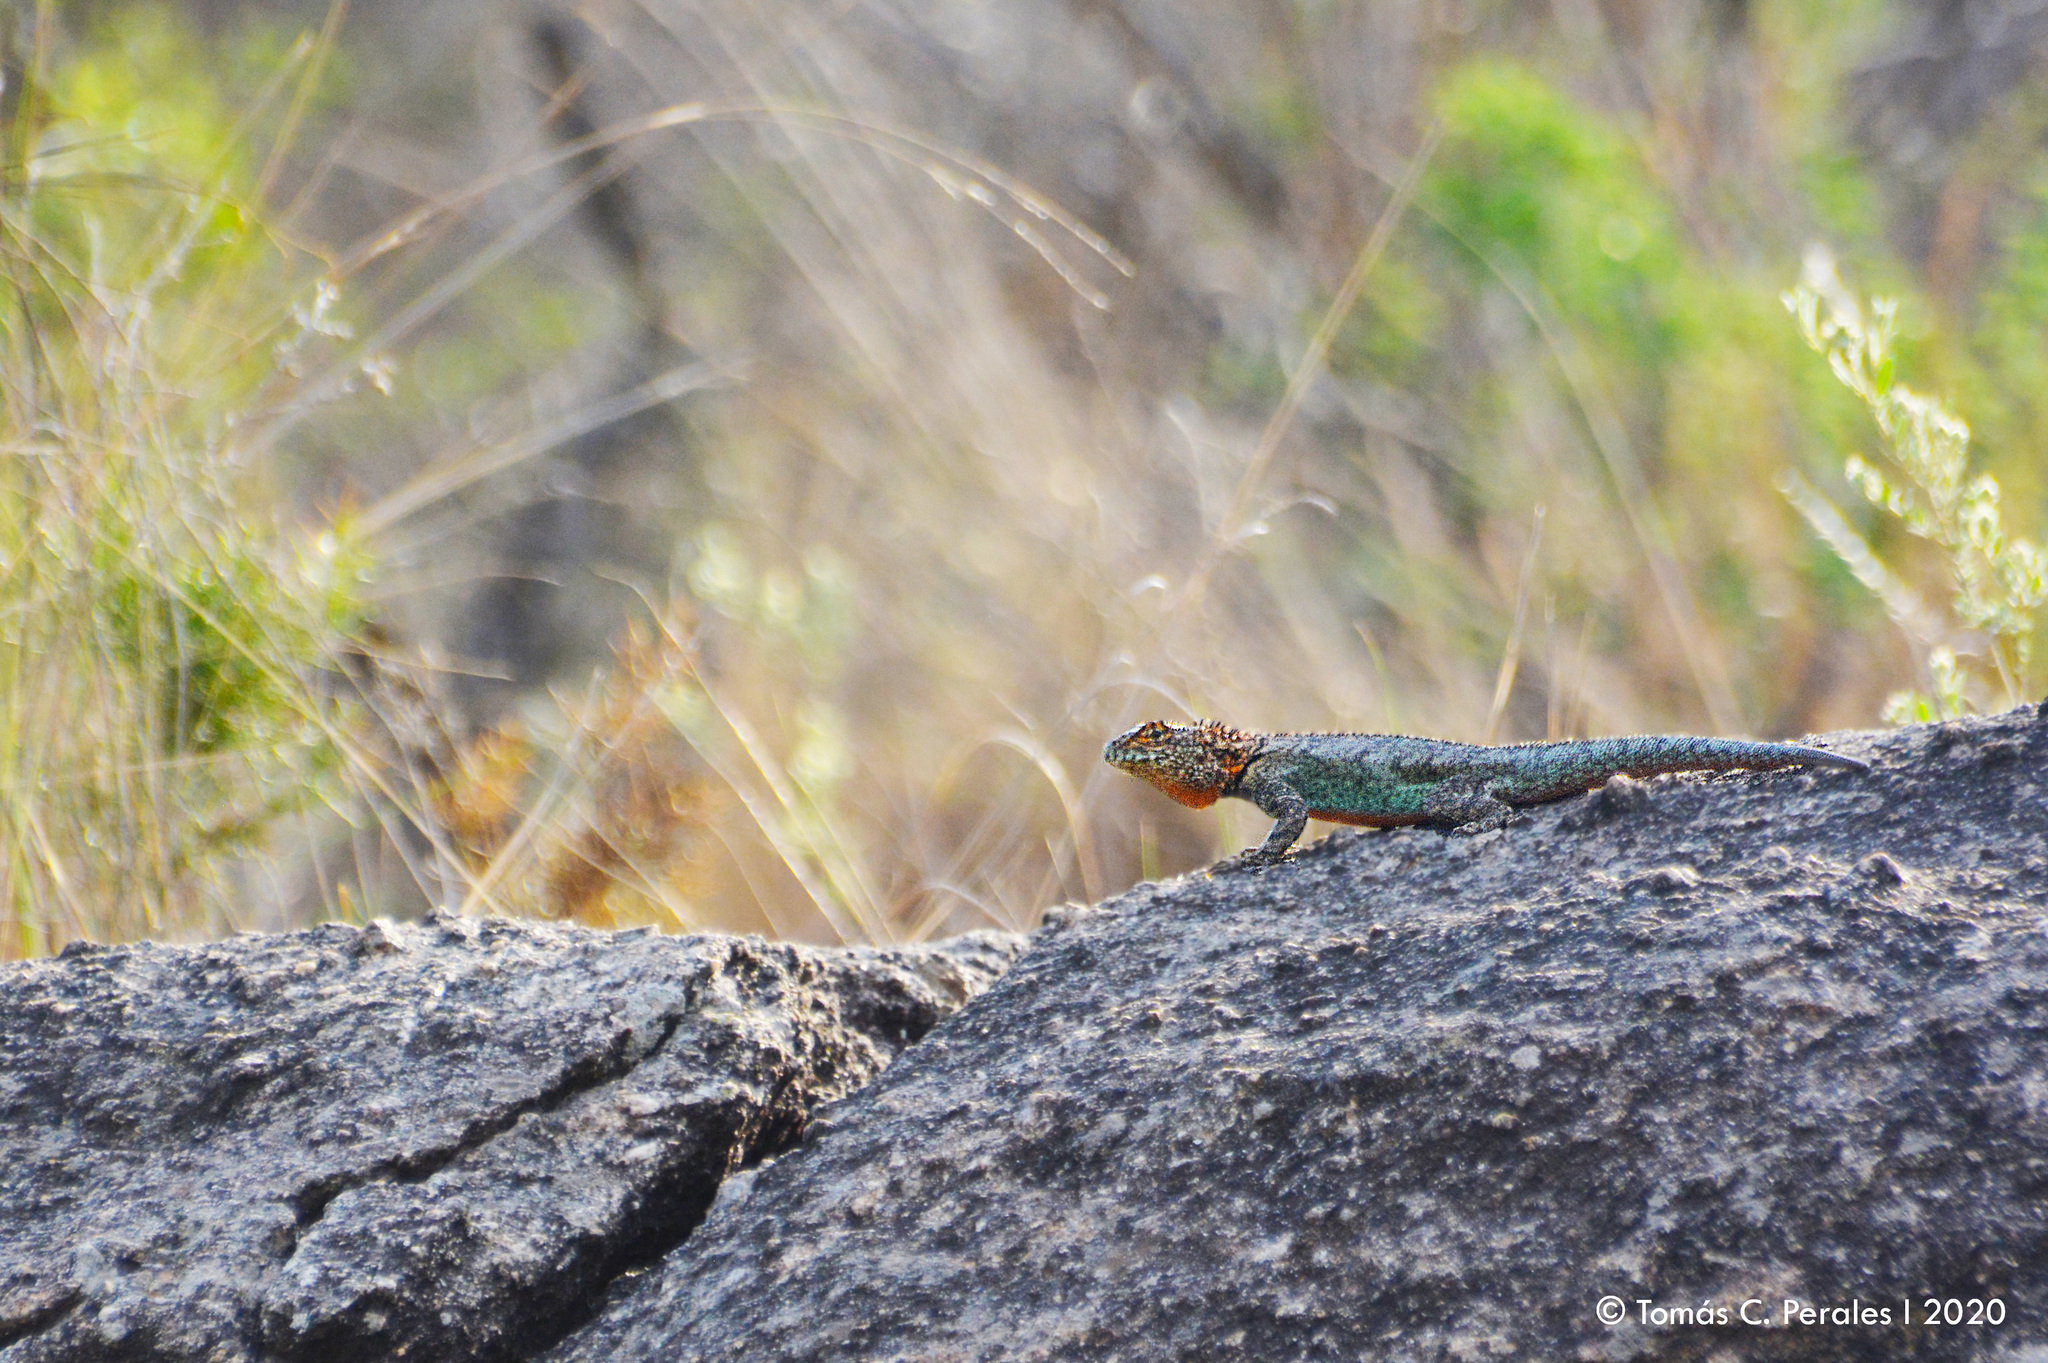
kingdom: Animalia
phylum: Chordata
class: Squamata
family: Tropiduridae
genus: Tropidurus
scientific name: Tropidurus spinulosus
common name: Spiny lava lizard
